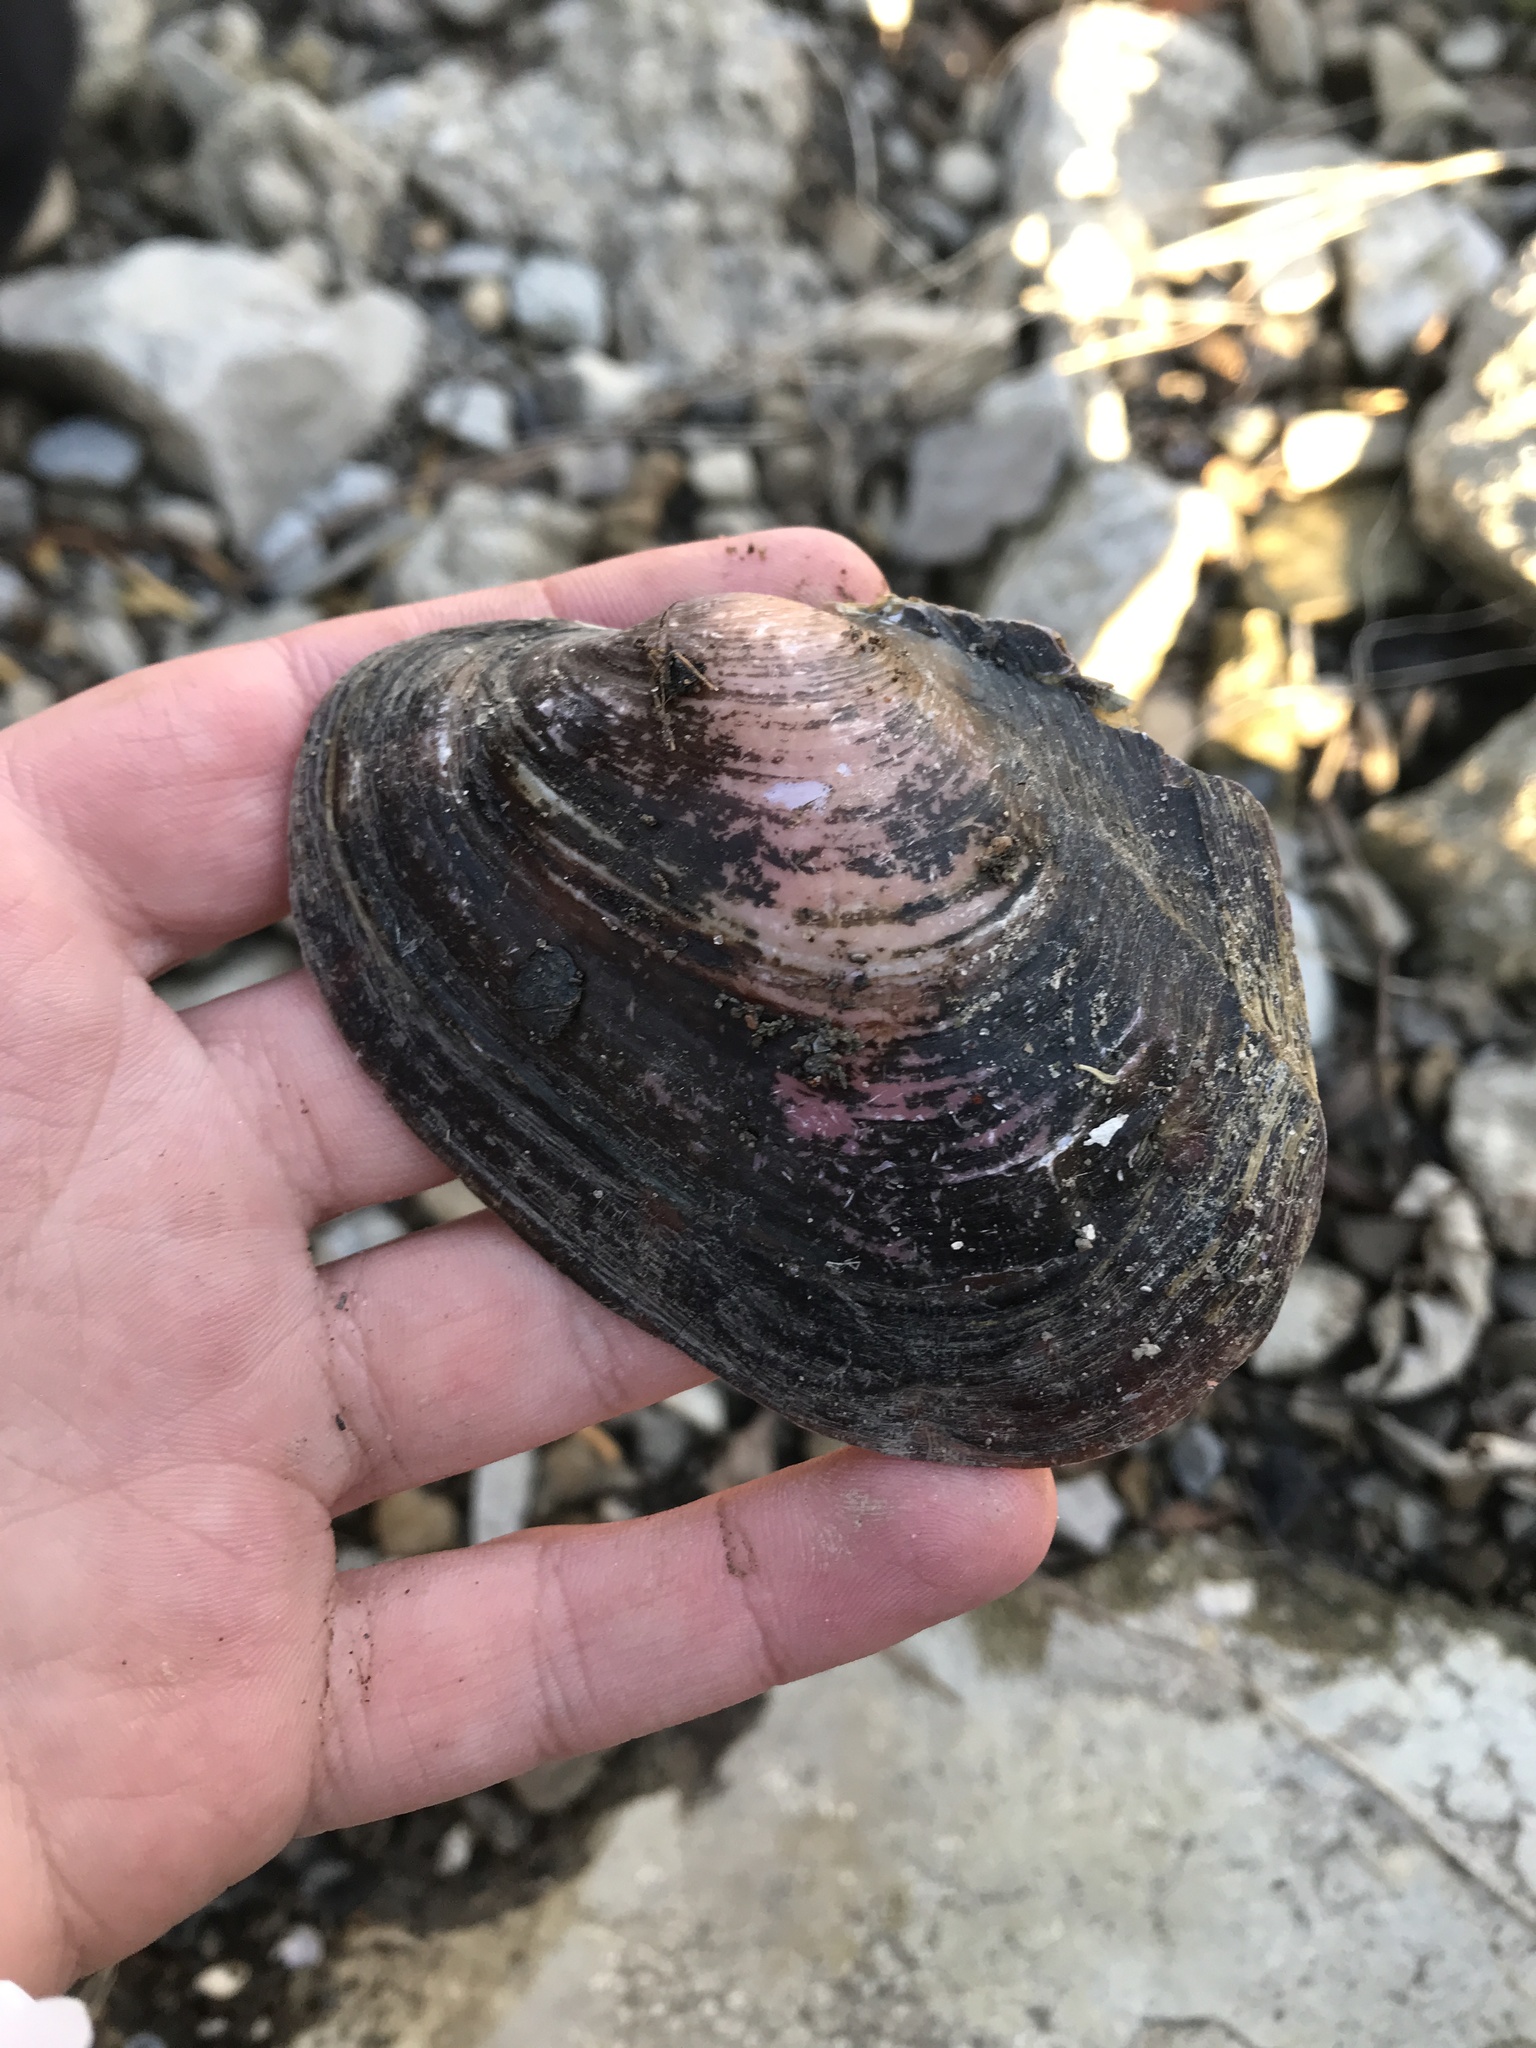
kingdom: Animalia
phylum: Mollusca
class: Bivalvia
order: Unionida
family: Unionidae
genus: Potamilus
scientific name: Potamilus alatus
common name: Pink heelsplitter
